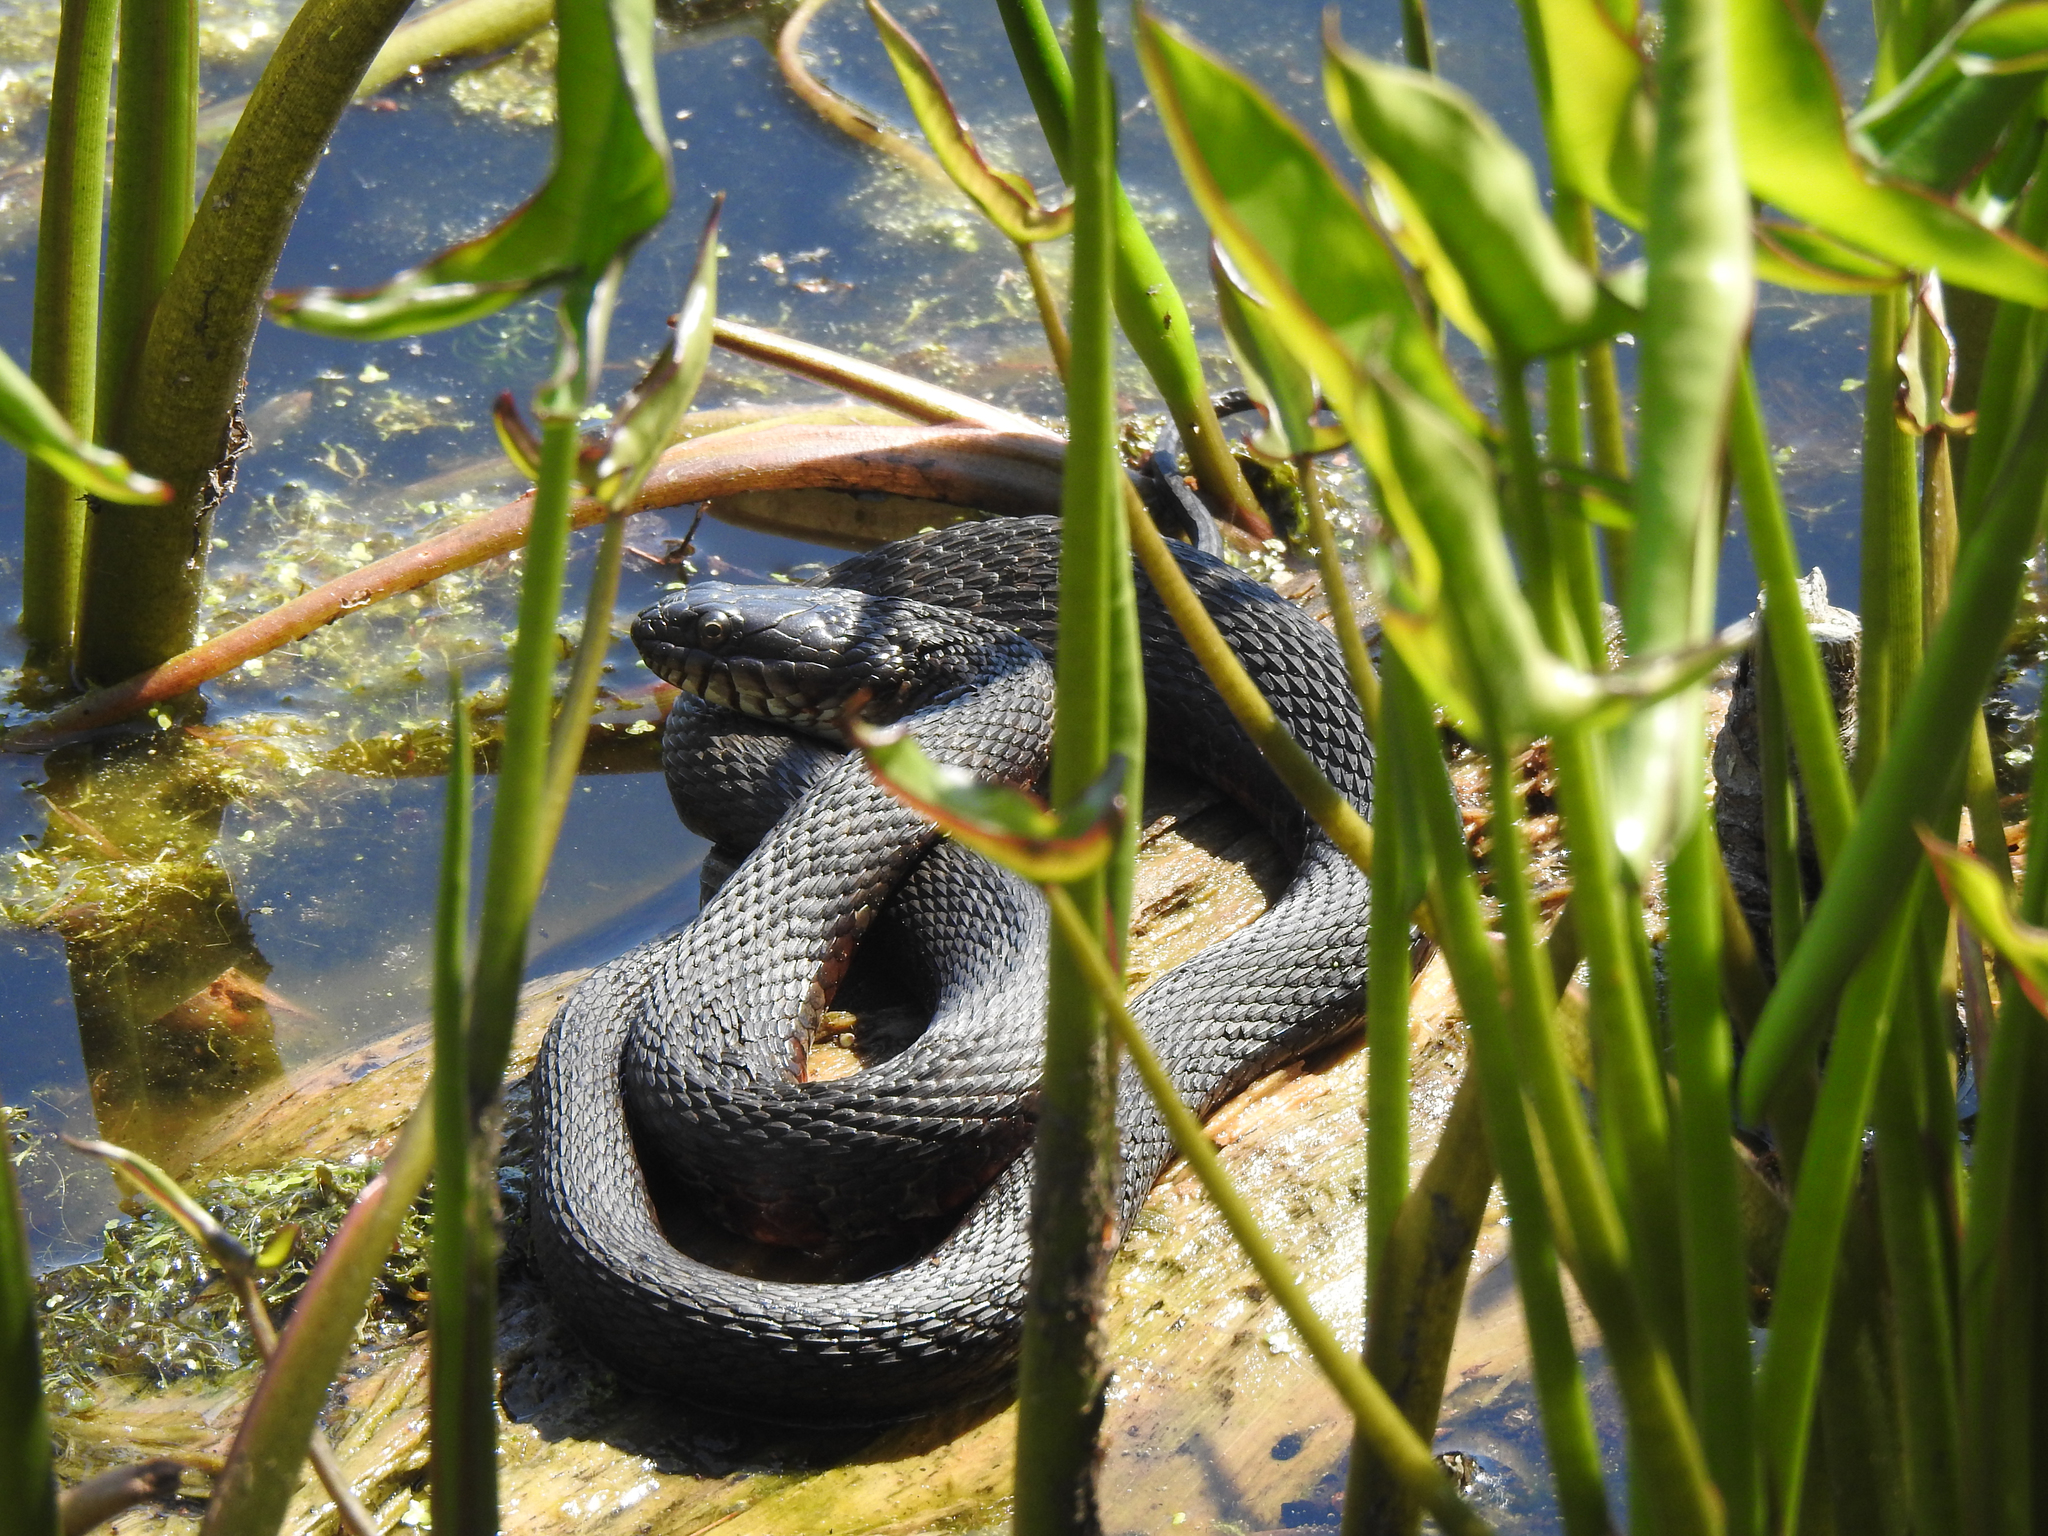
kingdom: Animalia
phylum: Chordata
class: Squamata
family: Colubridae
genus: Nerodia
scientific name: Nerodia sipedon
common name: Northern water snake
